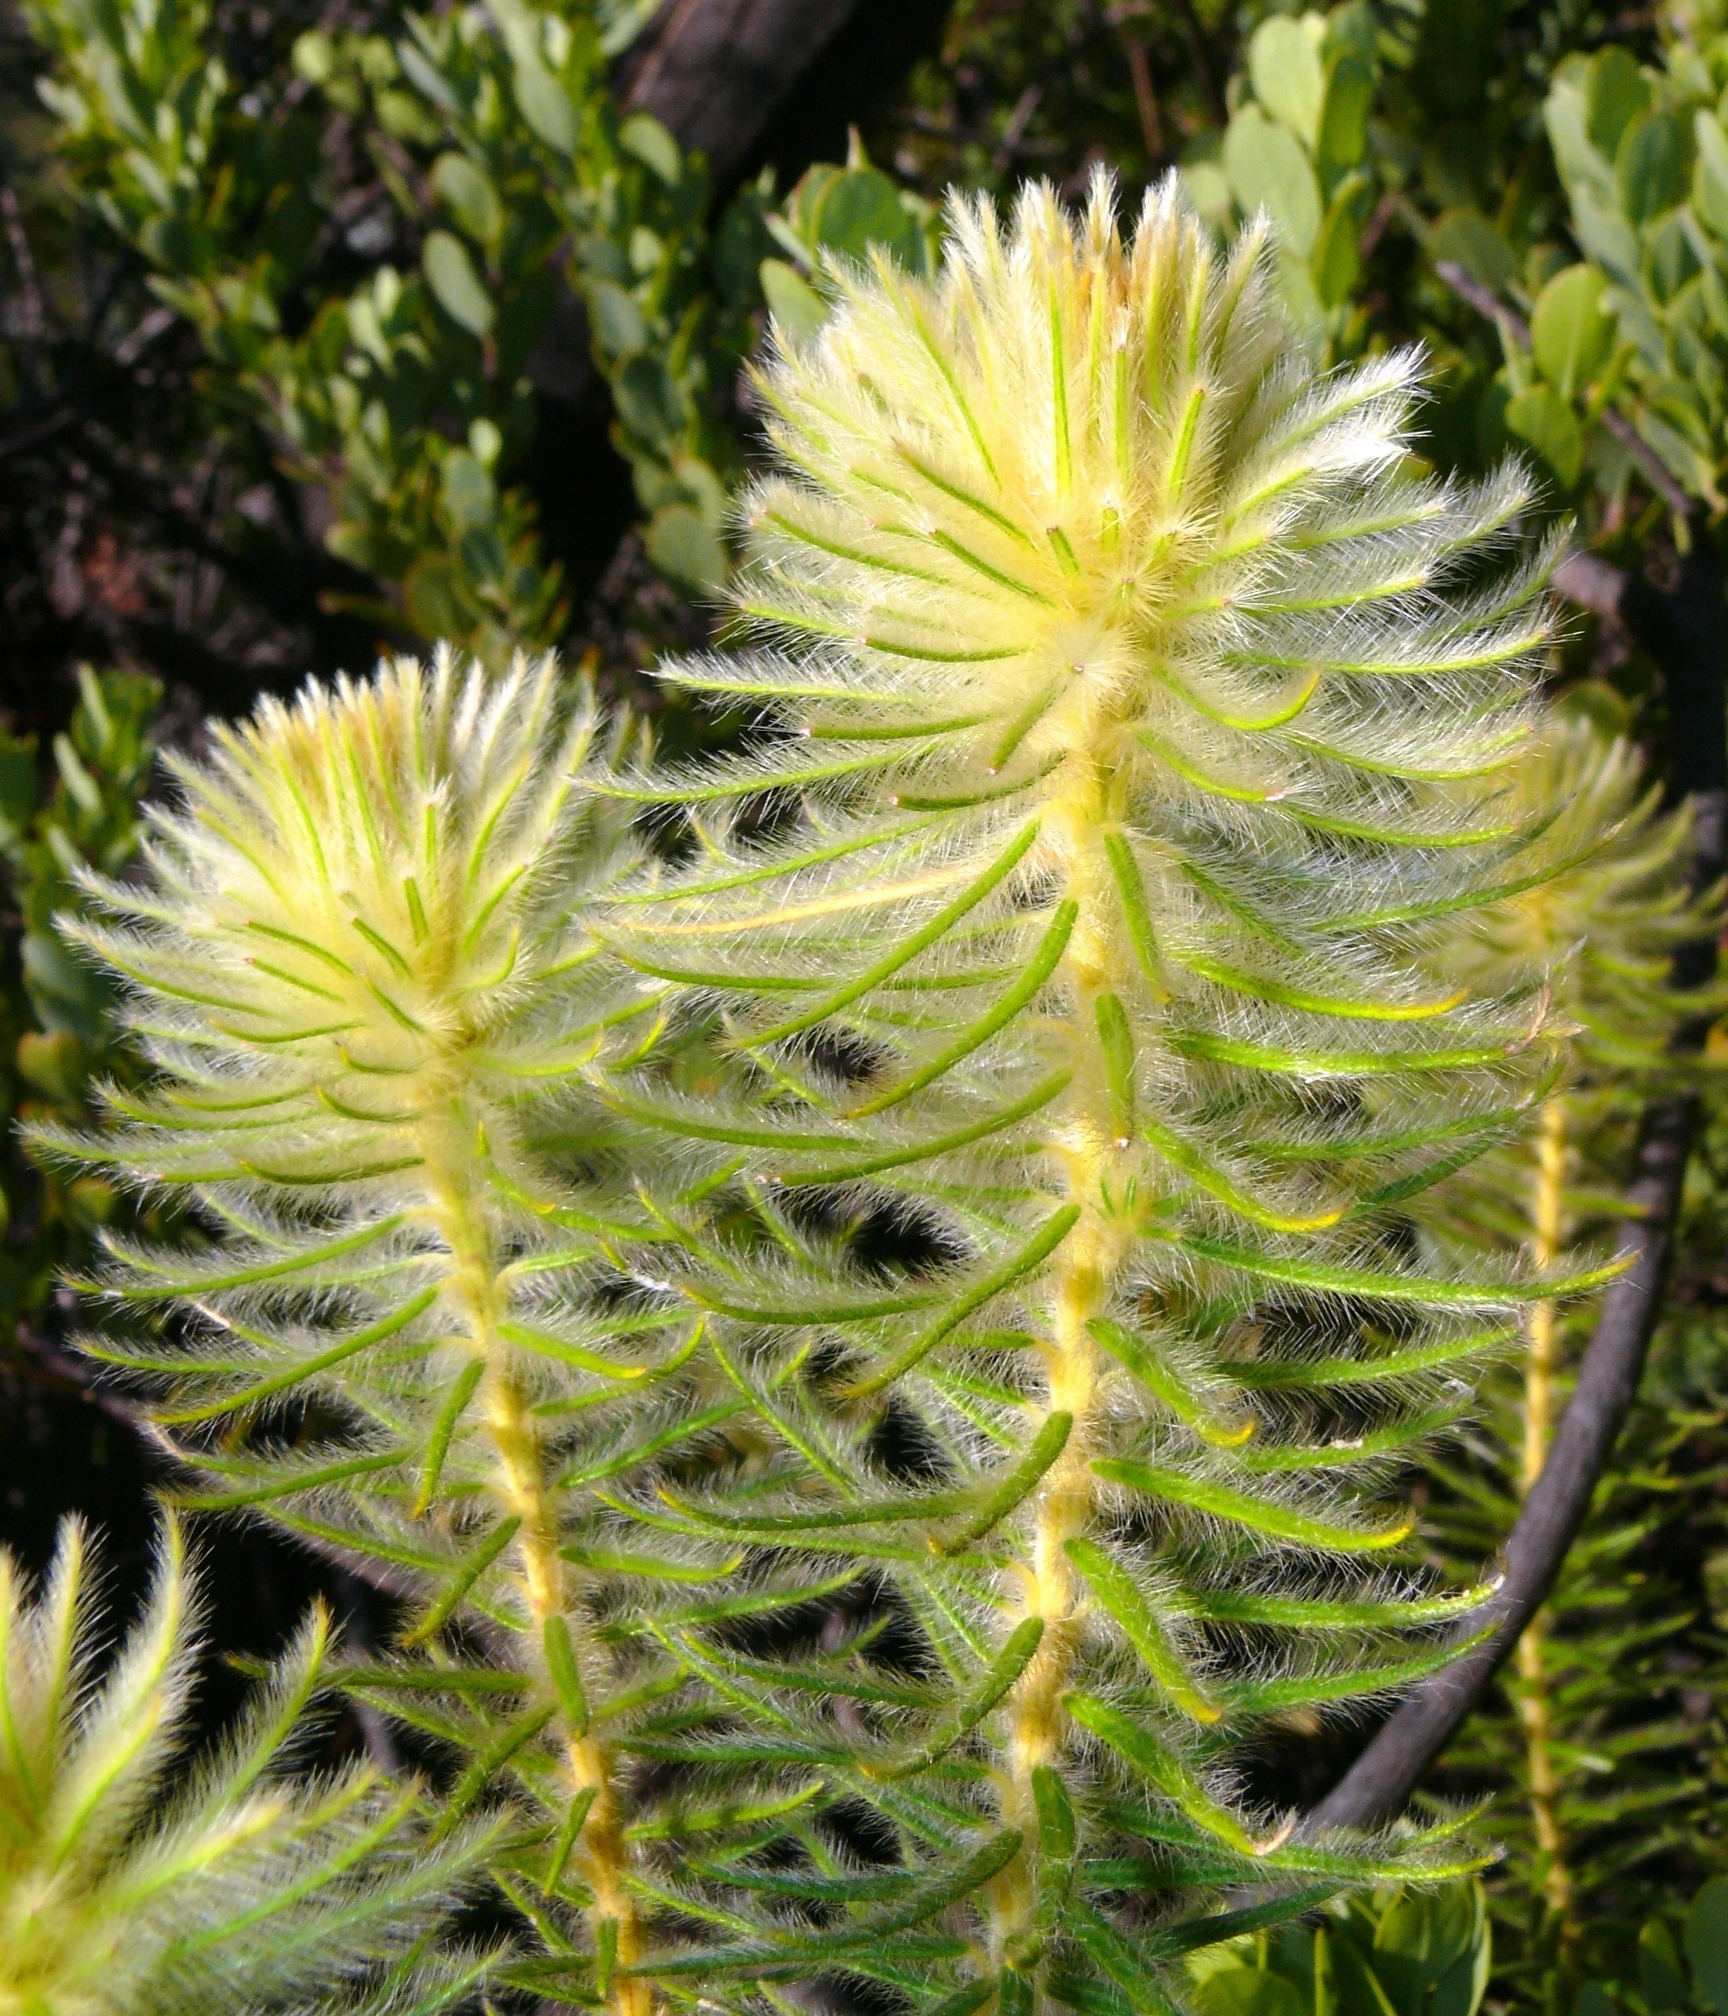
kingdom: Plantae
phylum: Tracheophyta
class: Magnoliopsida
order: Rosales
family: Rhamnaceae
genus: Phylica
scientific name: Phylica pubescens
